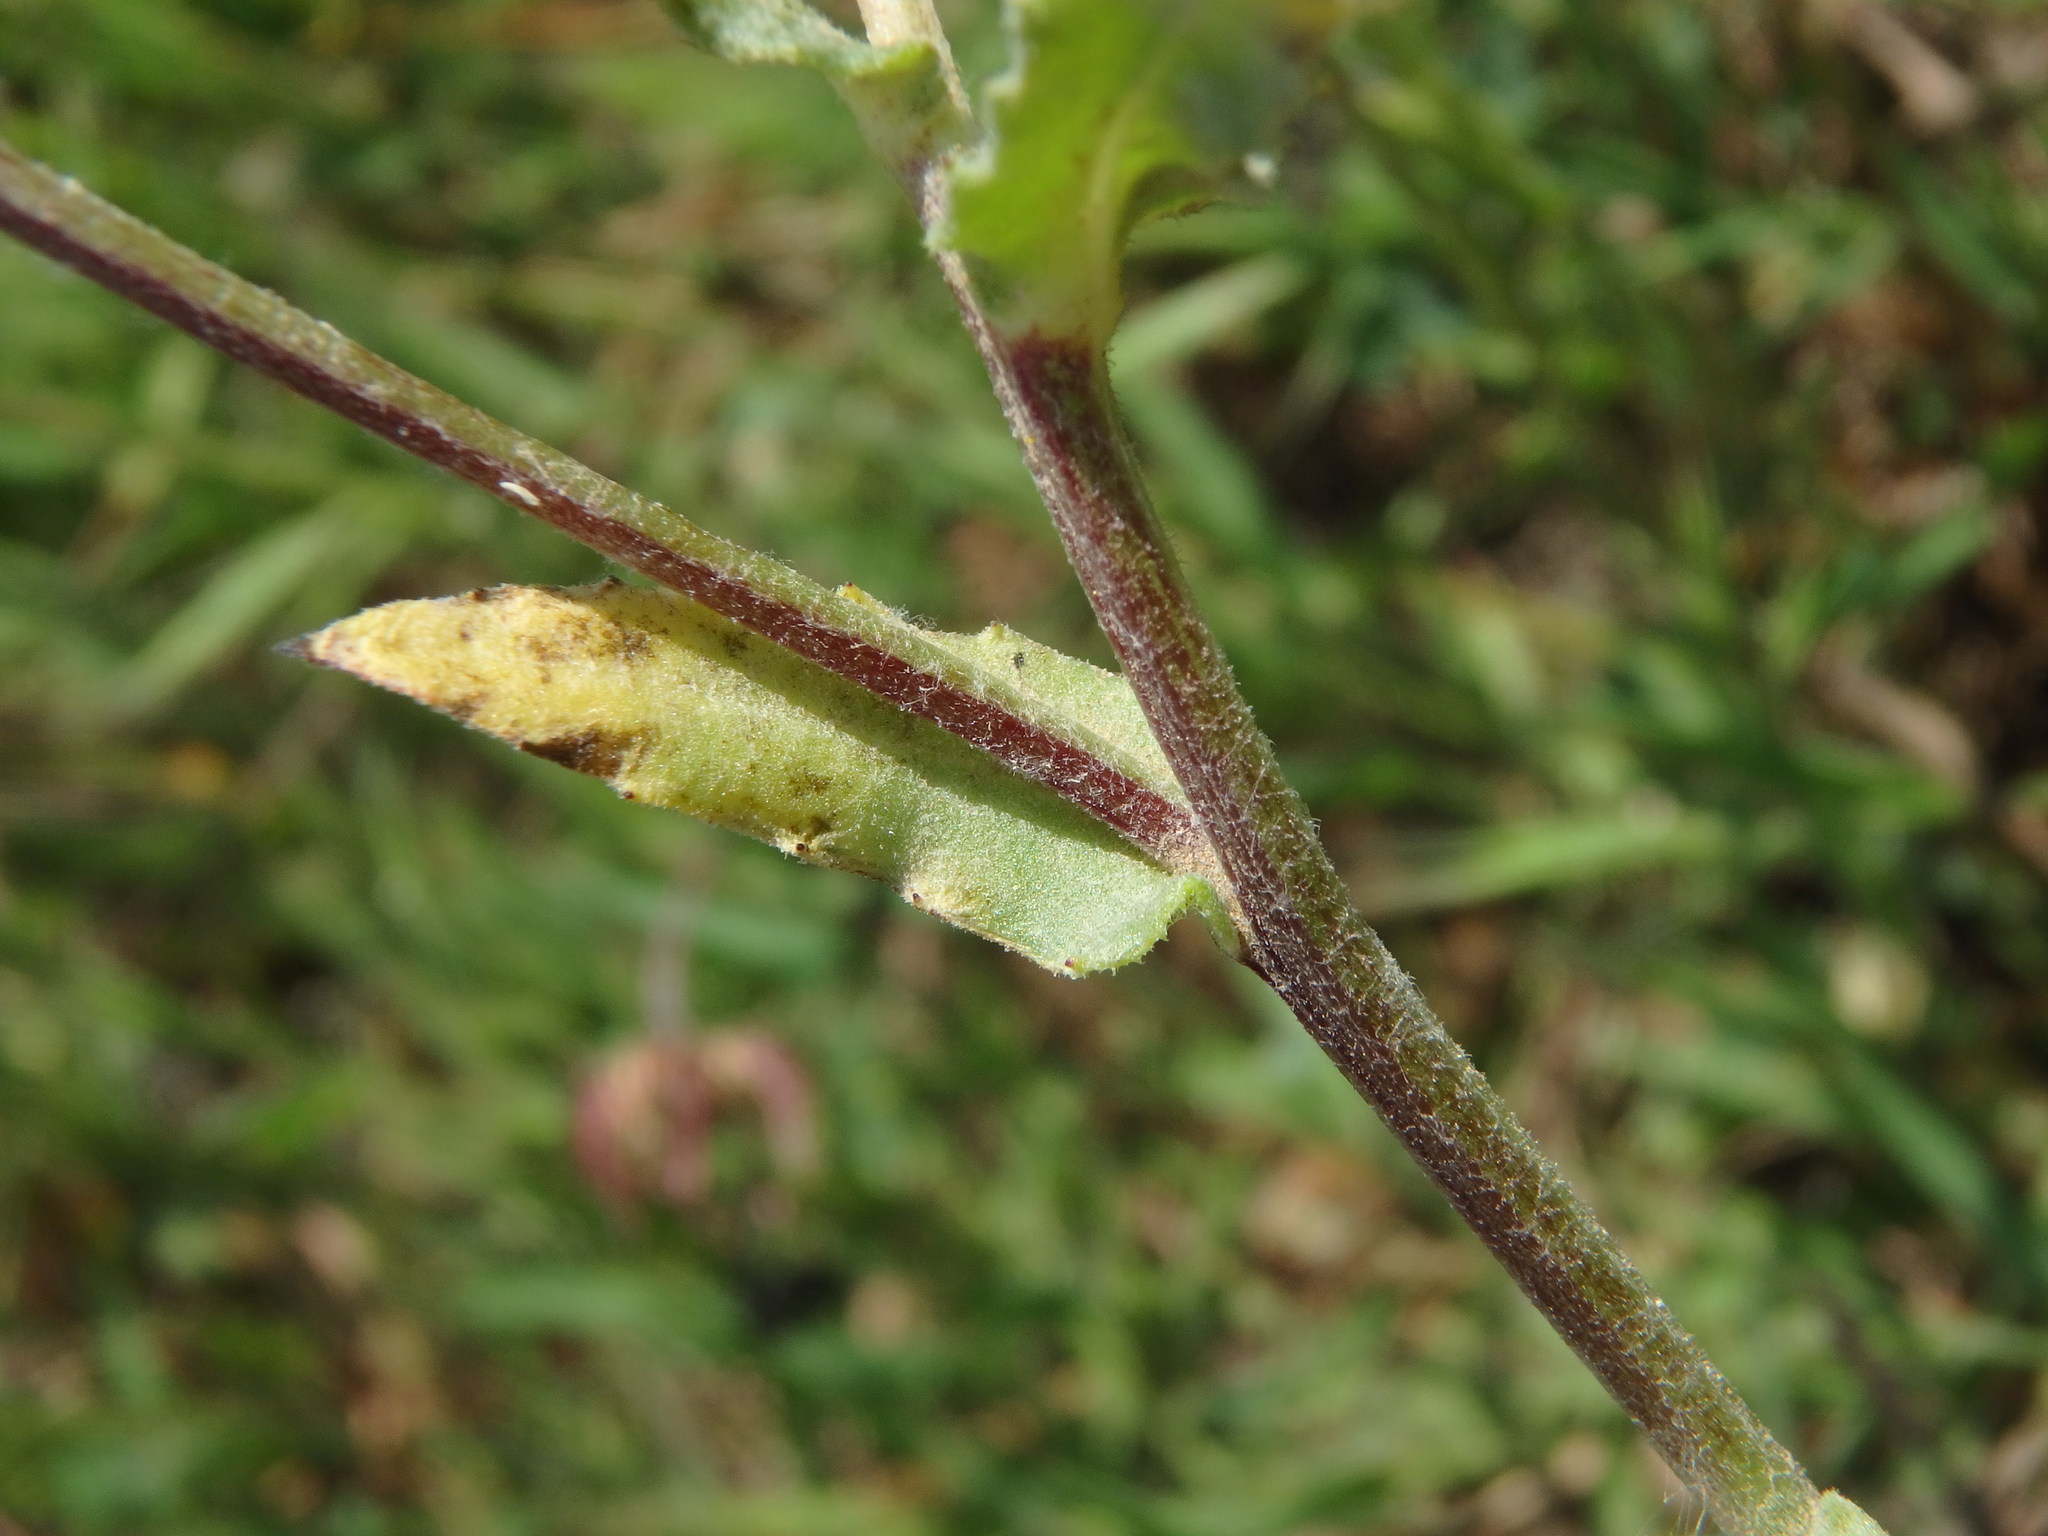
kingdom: Plantae
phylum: Tracheophyta
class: Magnoliopsida
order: Asterales
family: Asteraceae
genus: Calendula
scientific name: Calendula arvensis
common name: Field marigold
